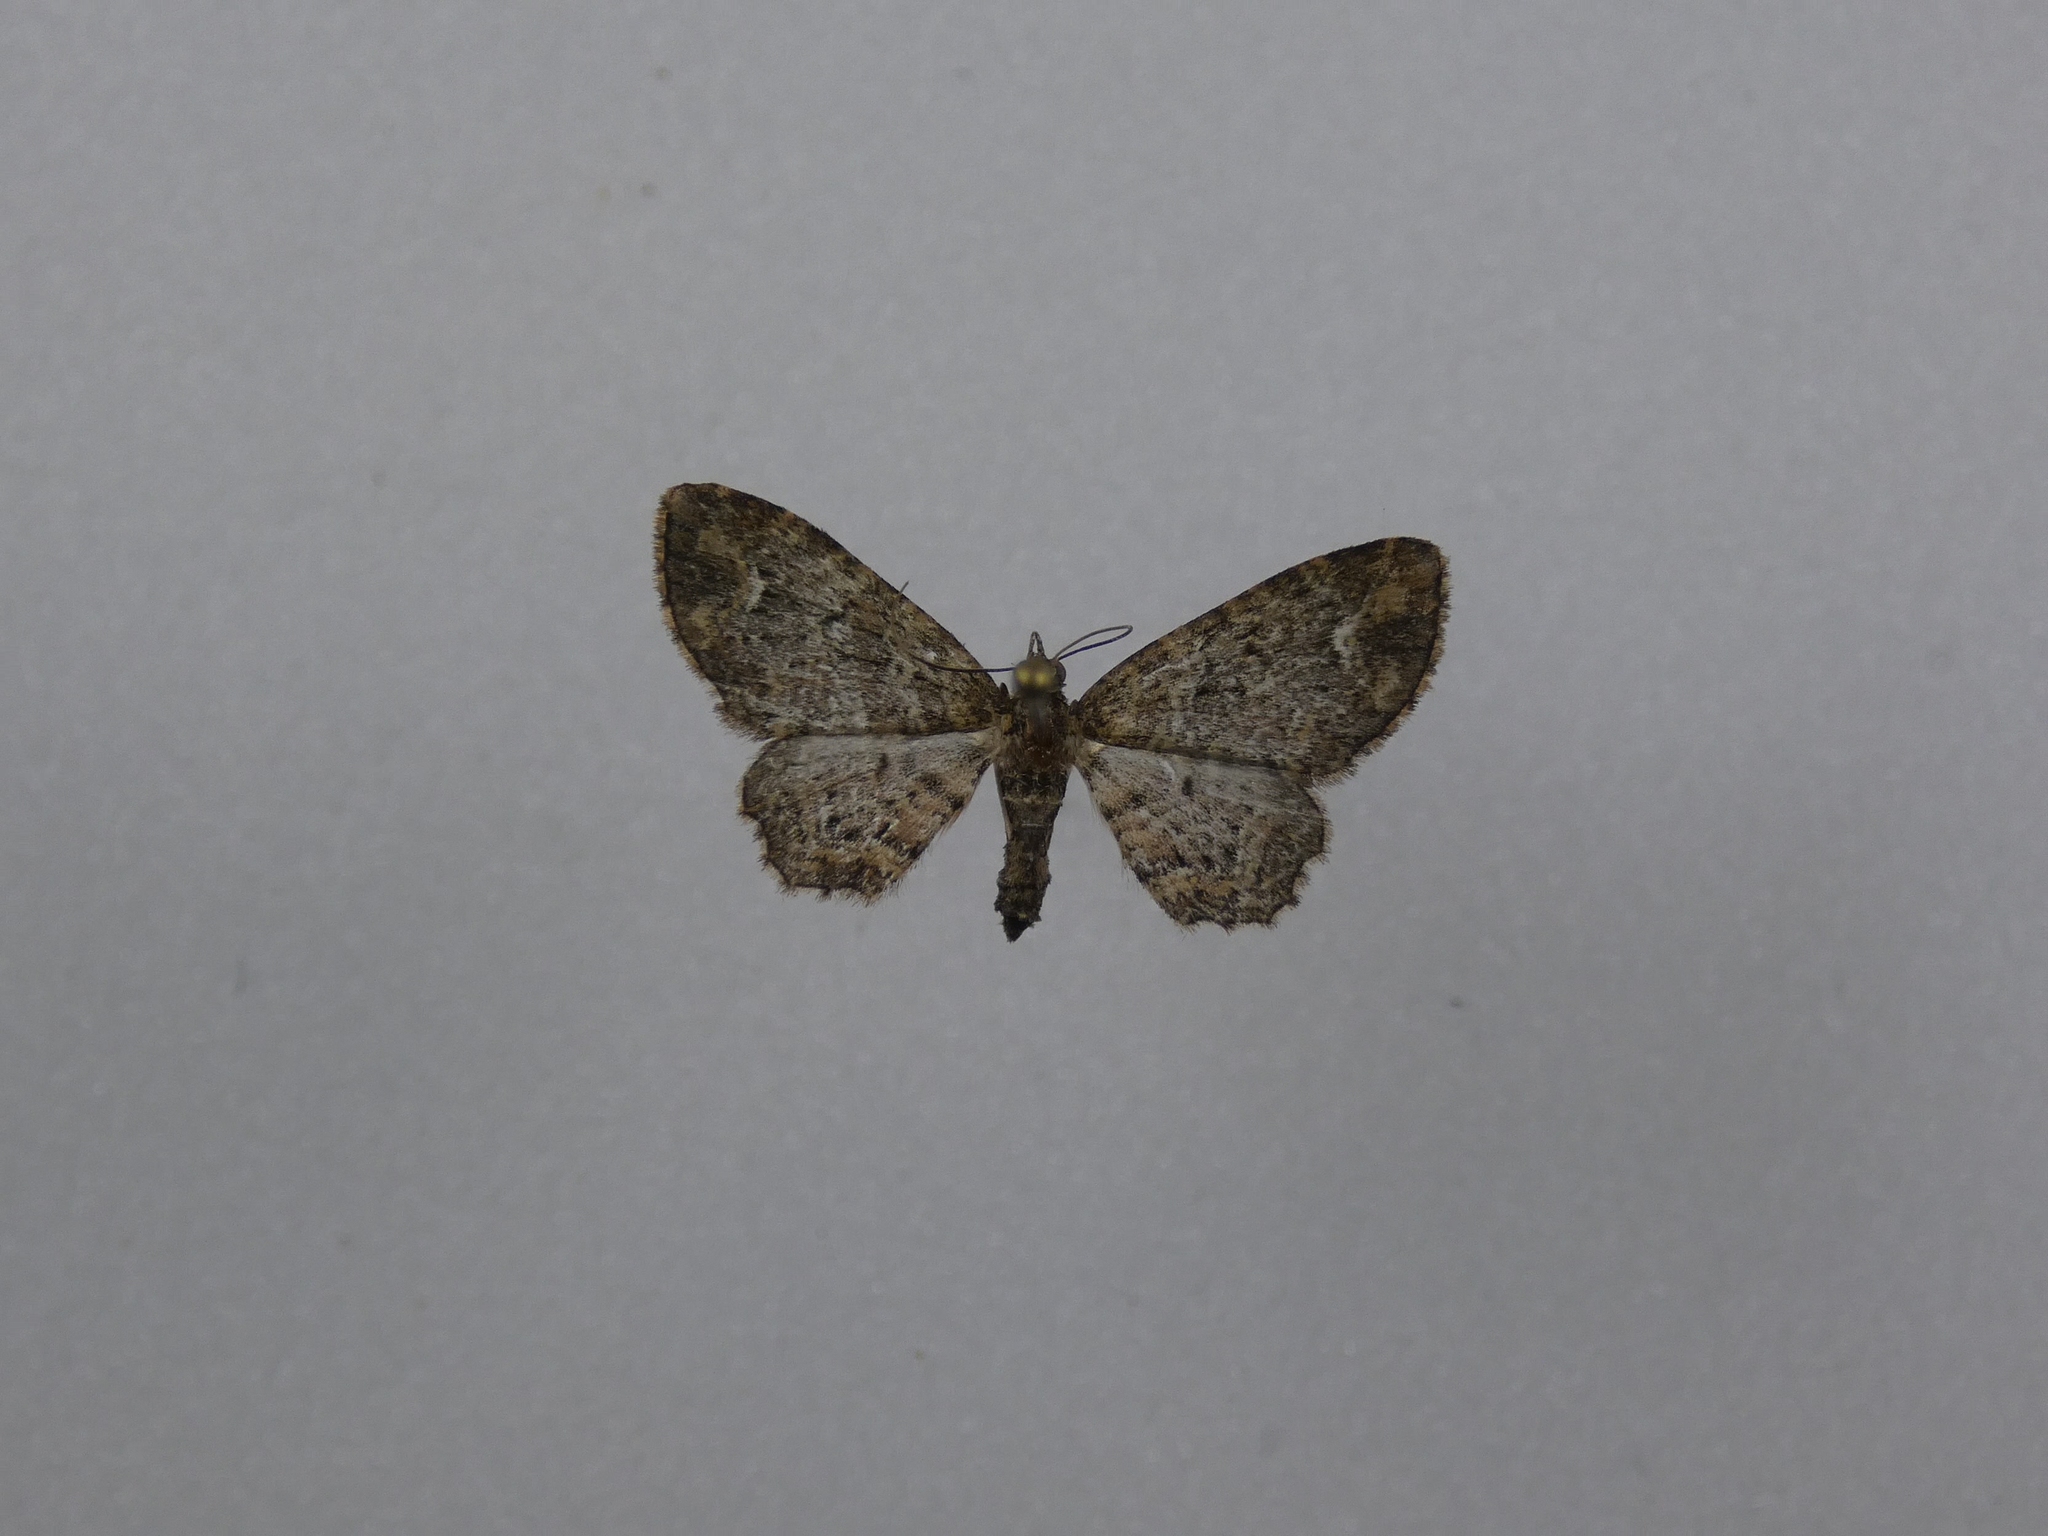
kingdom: Animalia
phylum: Arthropoda
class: Insecta
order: Lepidoptera
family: Geometridae
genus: Pasiphilodes
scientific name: Pasiphilodes testulata
